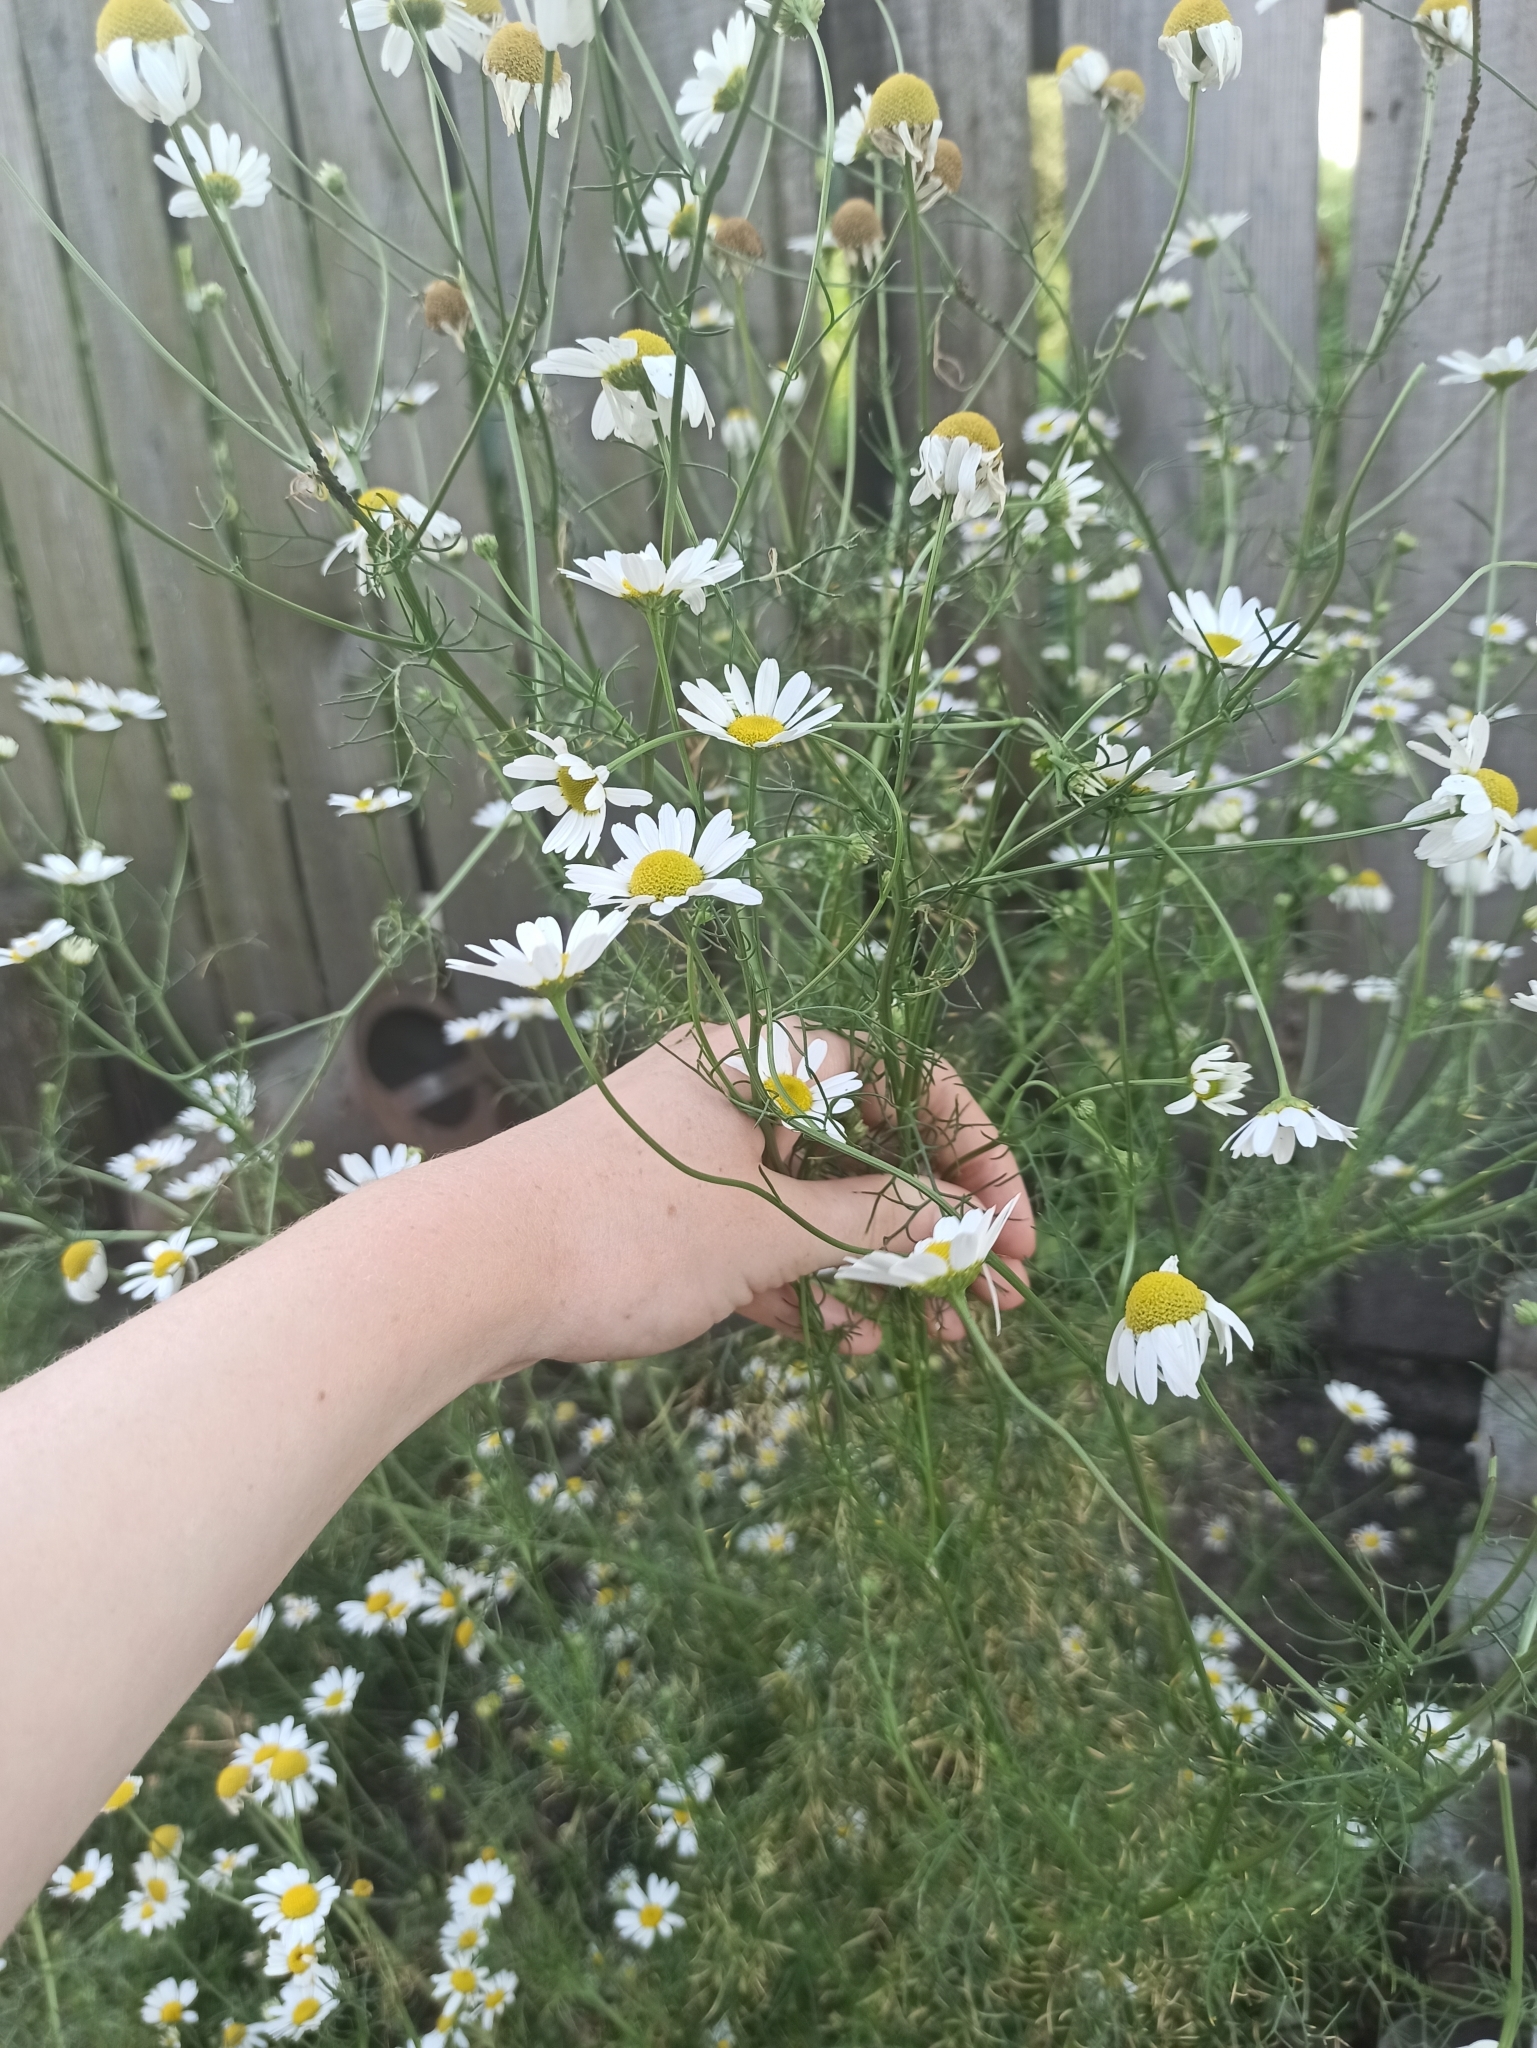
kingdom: Plantae
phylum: Tracheophyta
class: Magnoliopsida
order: Asterales
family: Asteraceae
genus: Tripleurospermum
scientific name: Tripleurospermum inodorum
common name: Scentless mayweed
